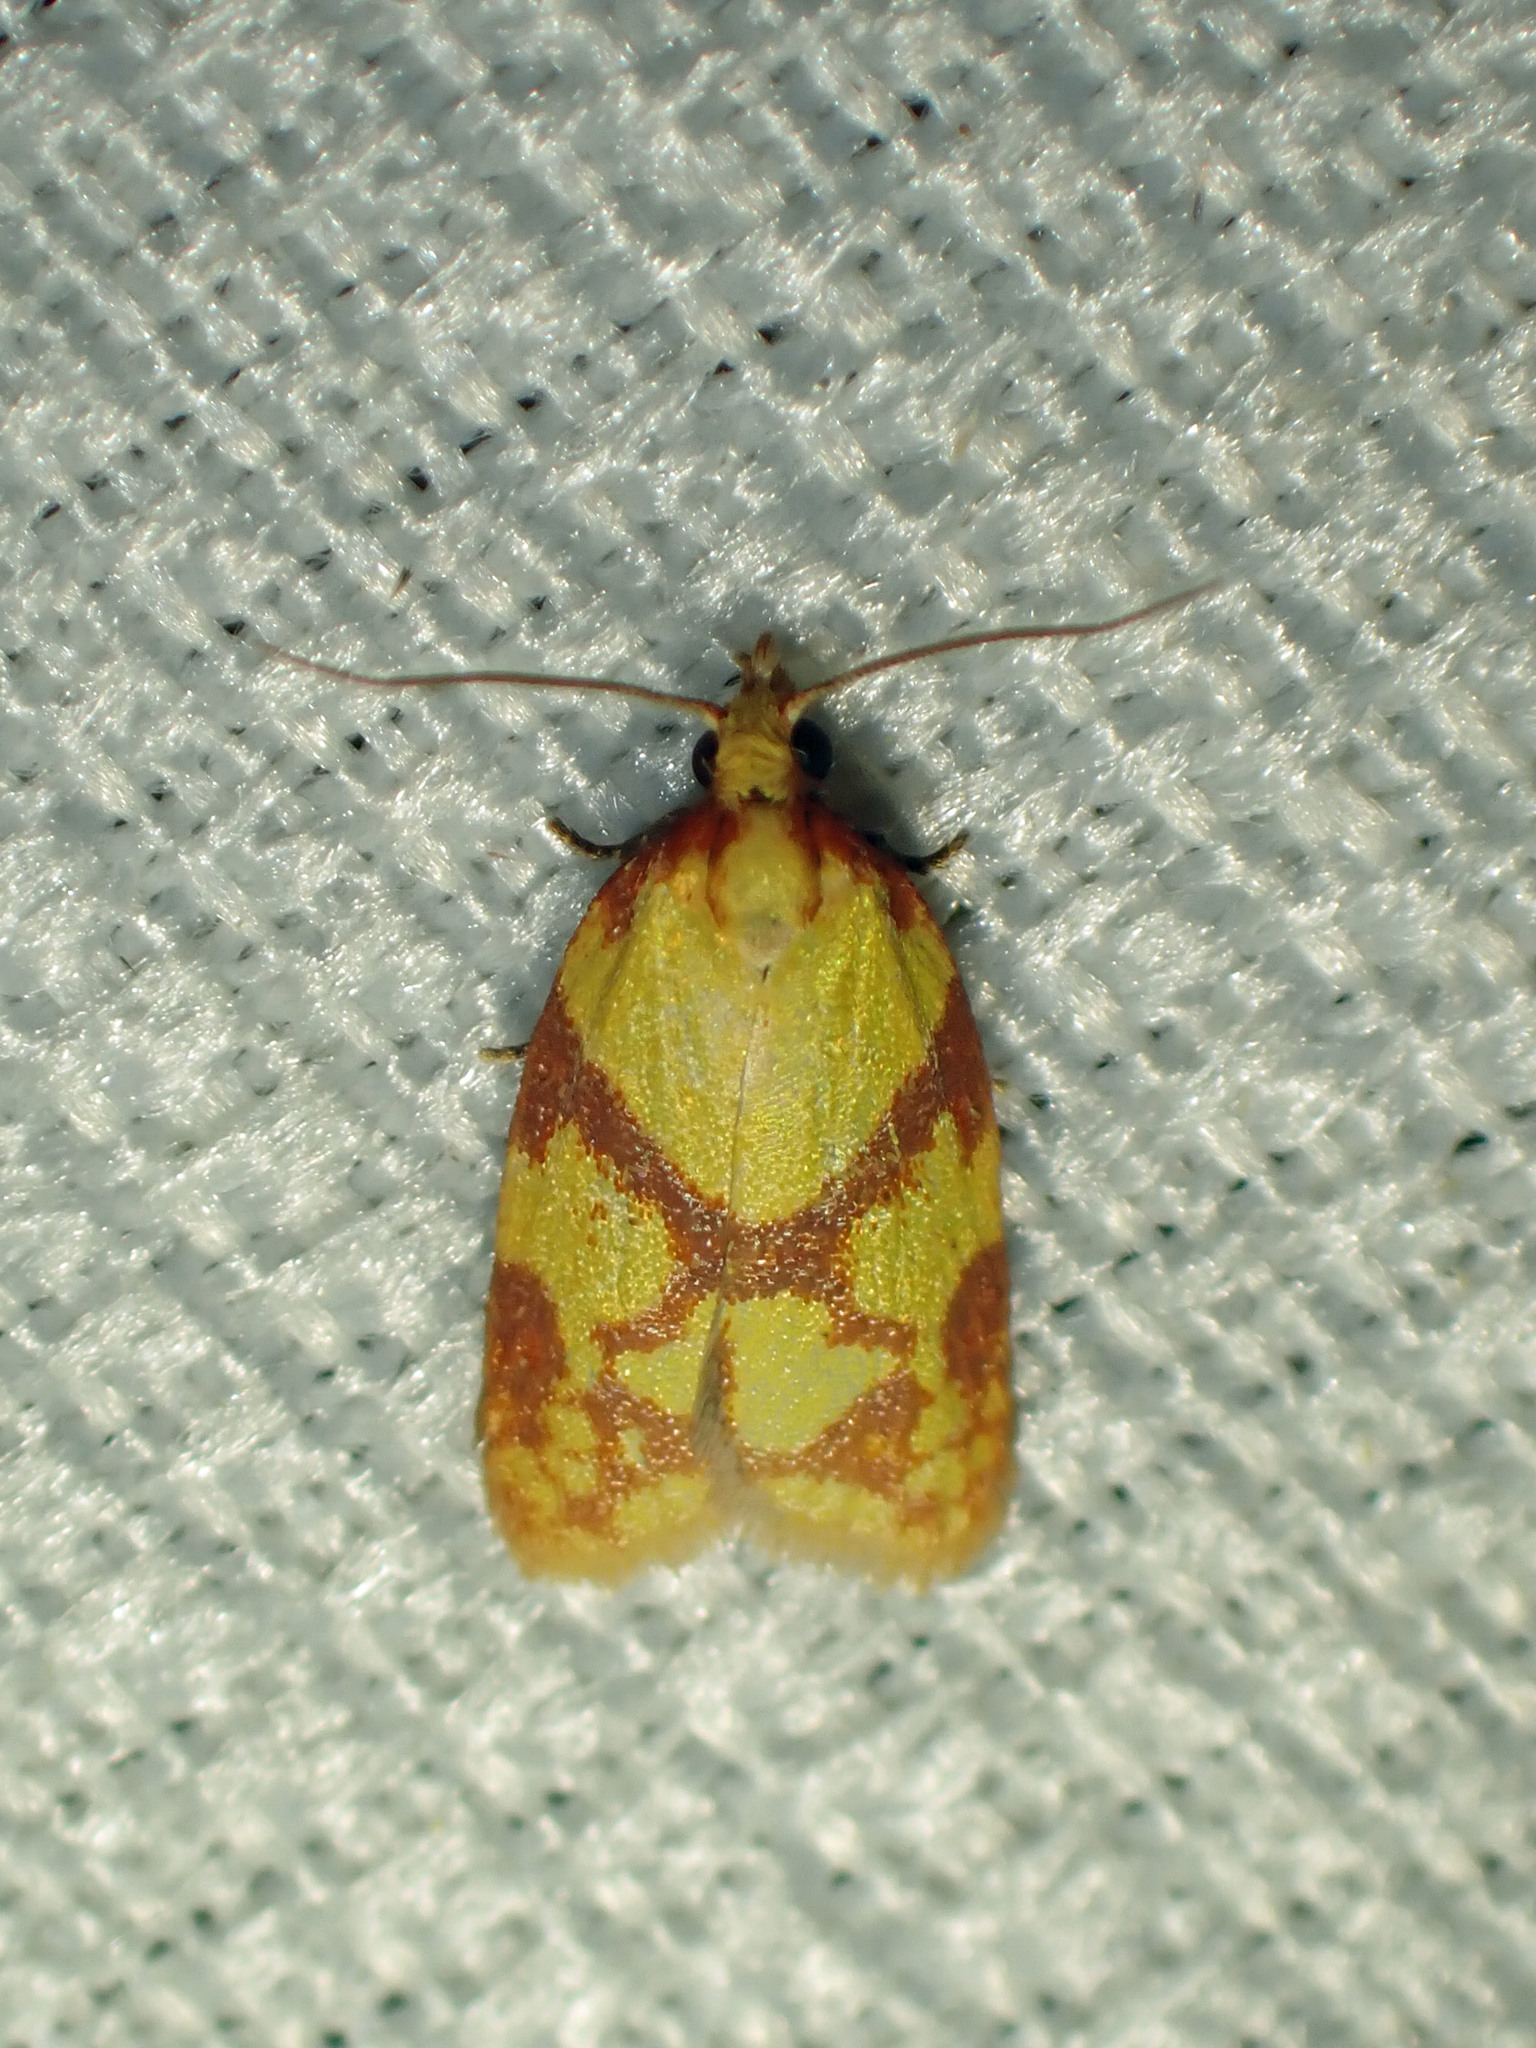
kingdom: Animalia
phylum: Arthropoda
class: Insecta
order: Lepidoptera
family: Tortricidae
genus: Sparganothis
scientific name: Sparganothis sulfureana
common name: Sparganothis fruitworm moth
